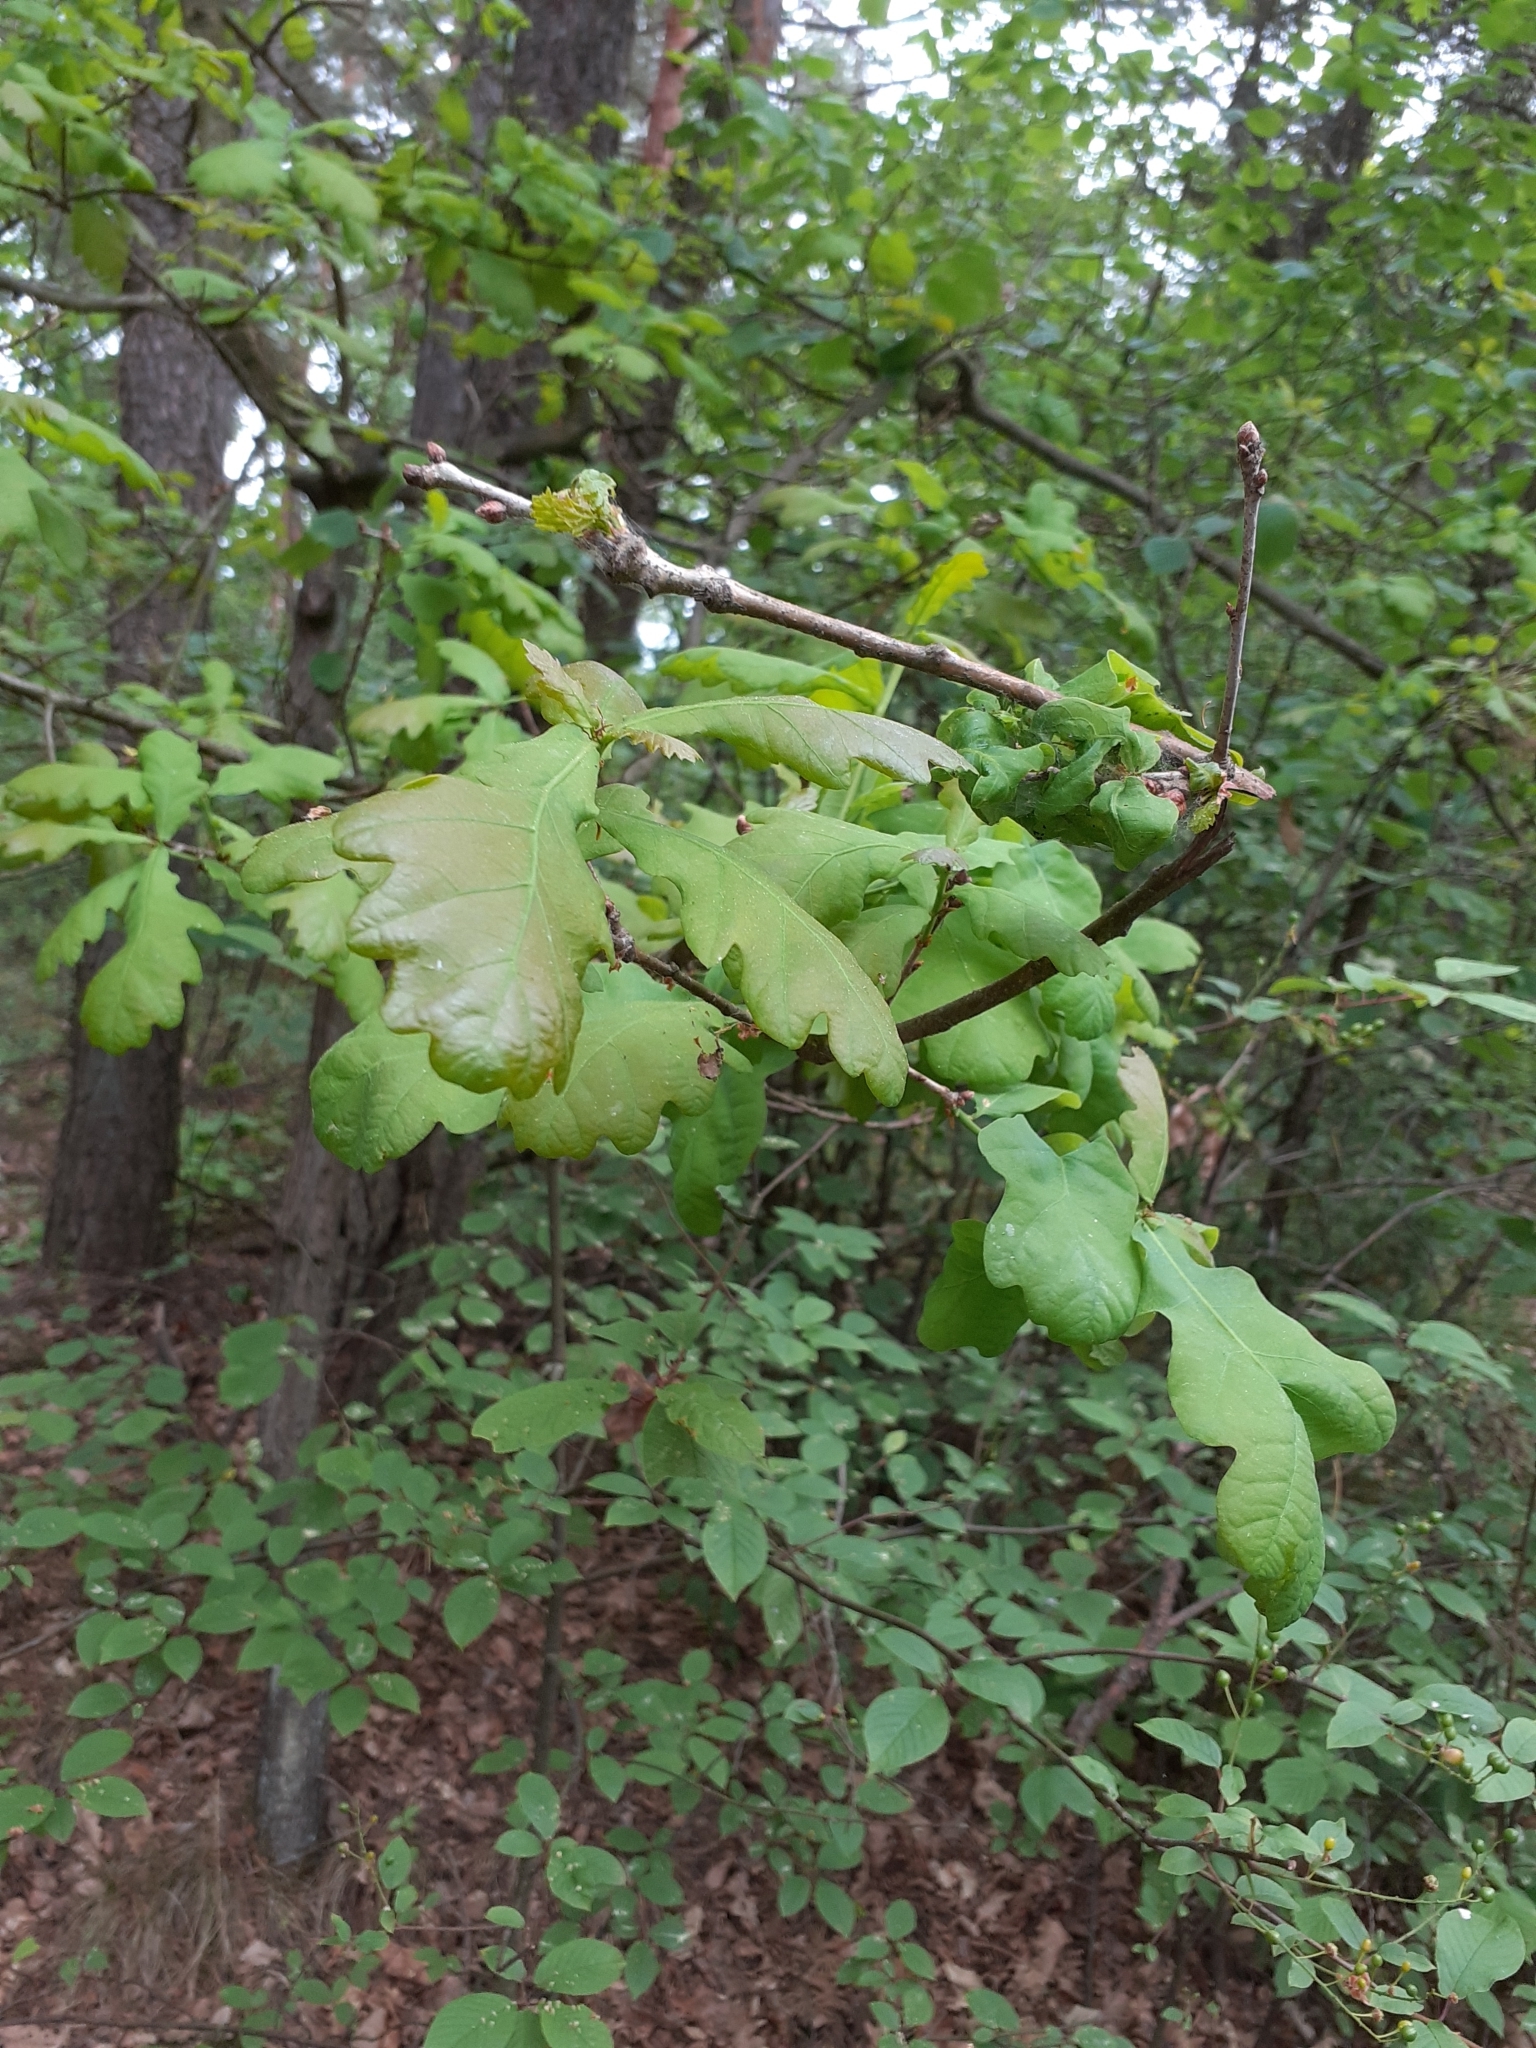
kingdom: Plantae
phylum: Tracheophyta
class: Magnoliopsida
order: Fagales
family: Fagaceae
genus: Quercus
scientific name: Quercus robur
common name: Pedunculate oak
